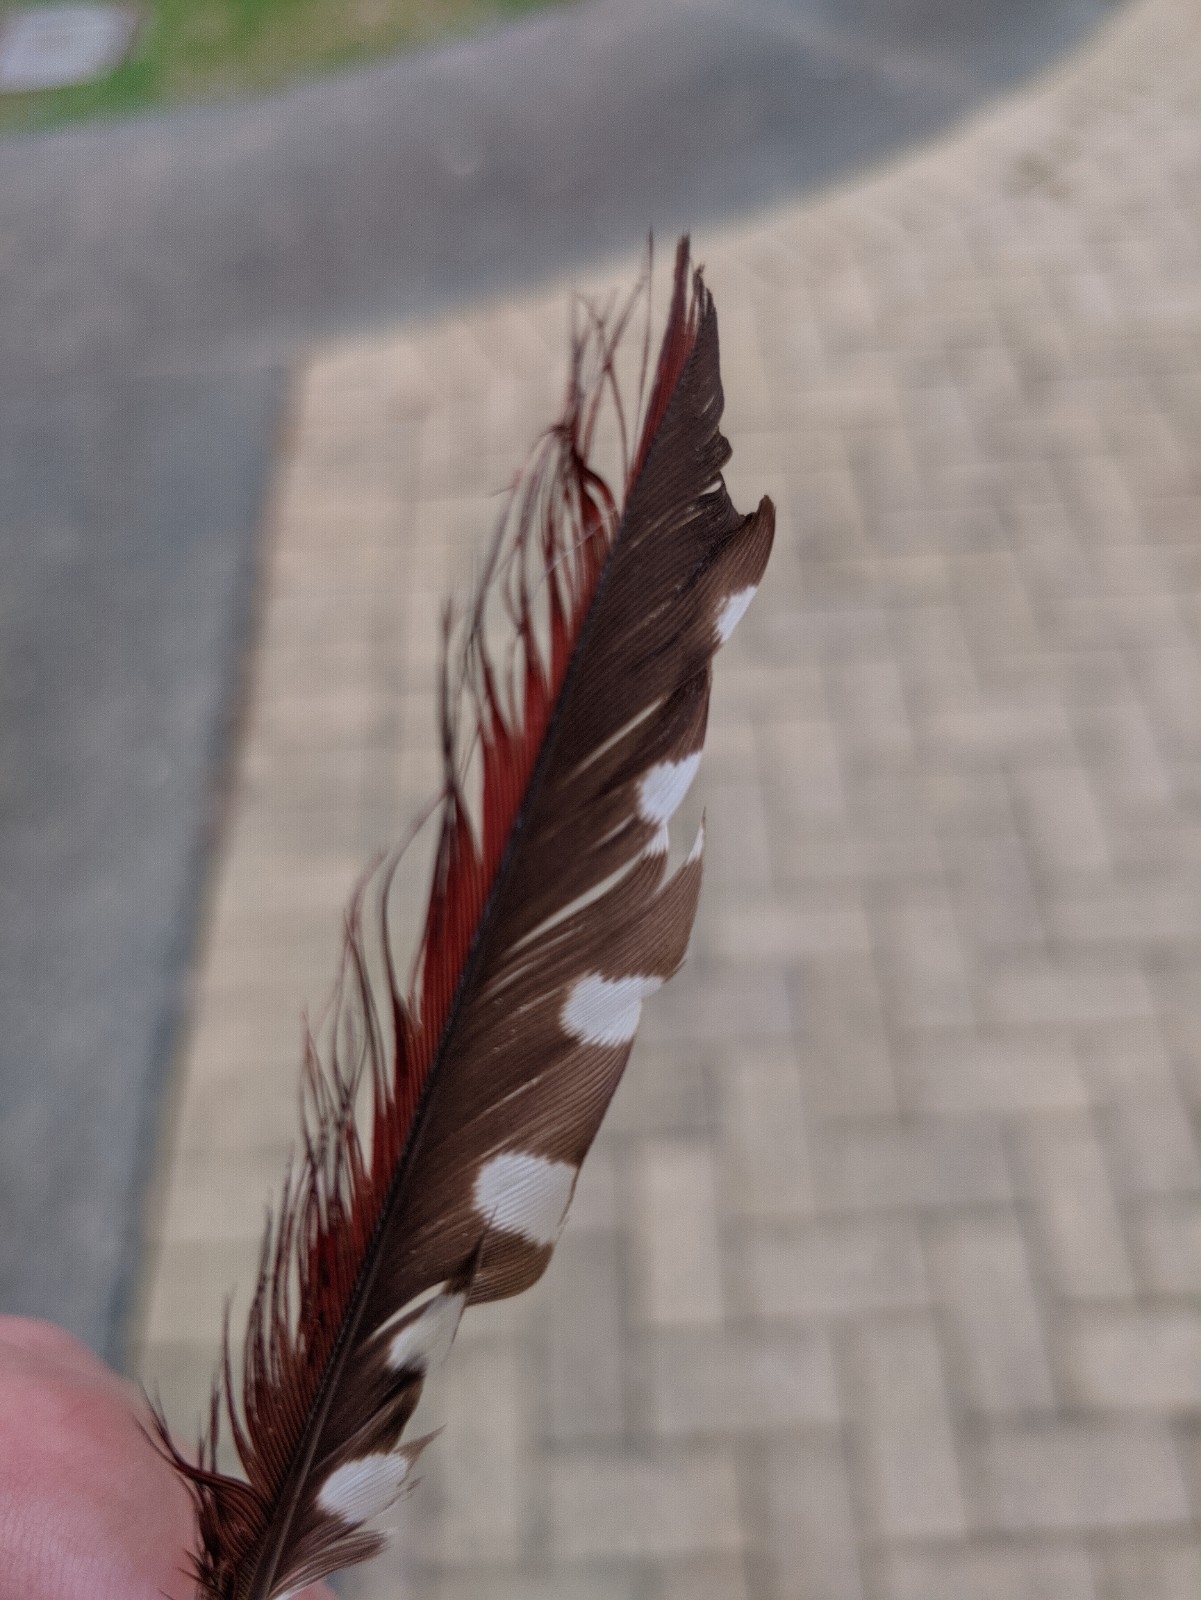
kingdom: Animalia
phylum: Chordata
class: Aves
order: Piciformes
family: Picidae
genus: Chrysophlegma
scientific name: Chrysophlegma miniaceum
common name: Banded woodpecker
